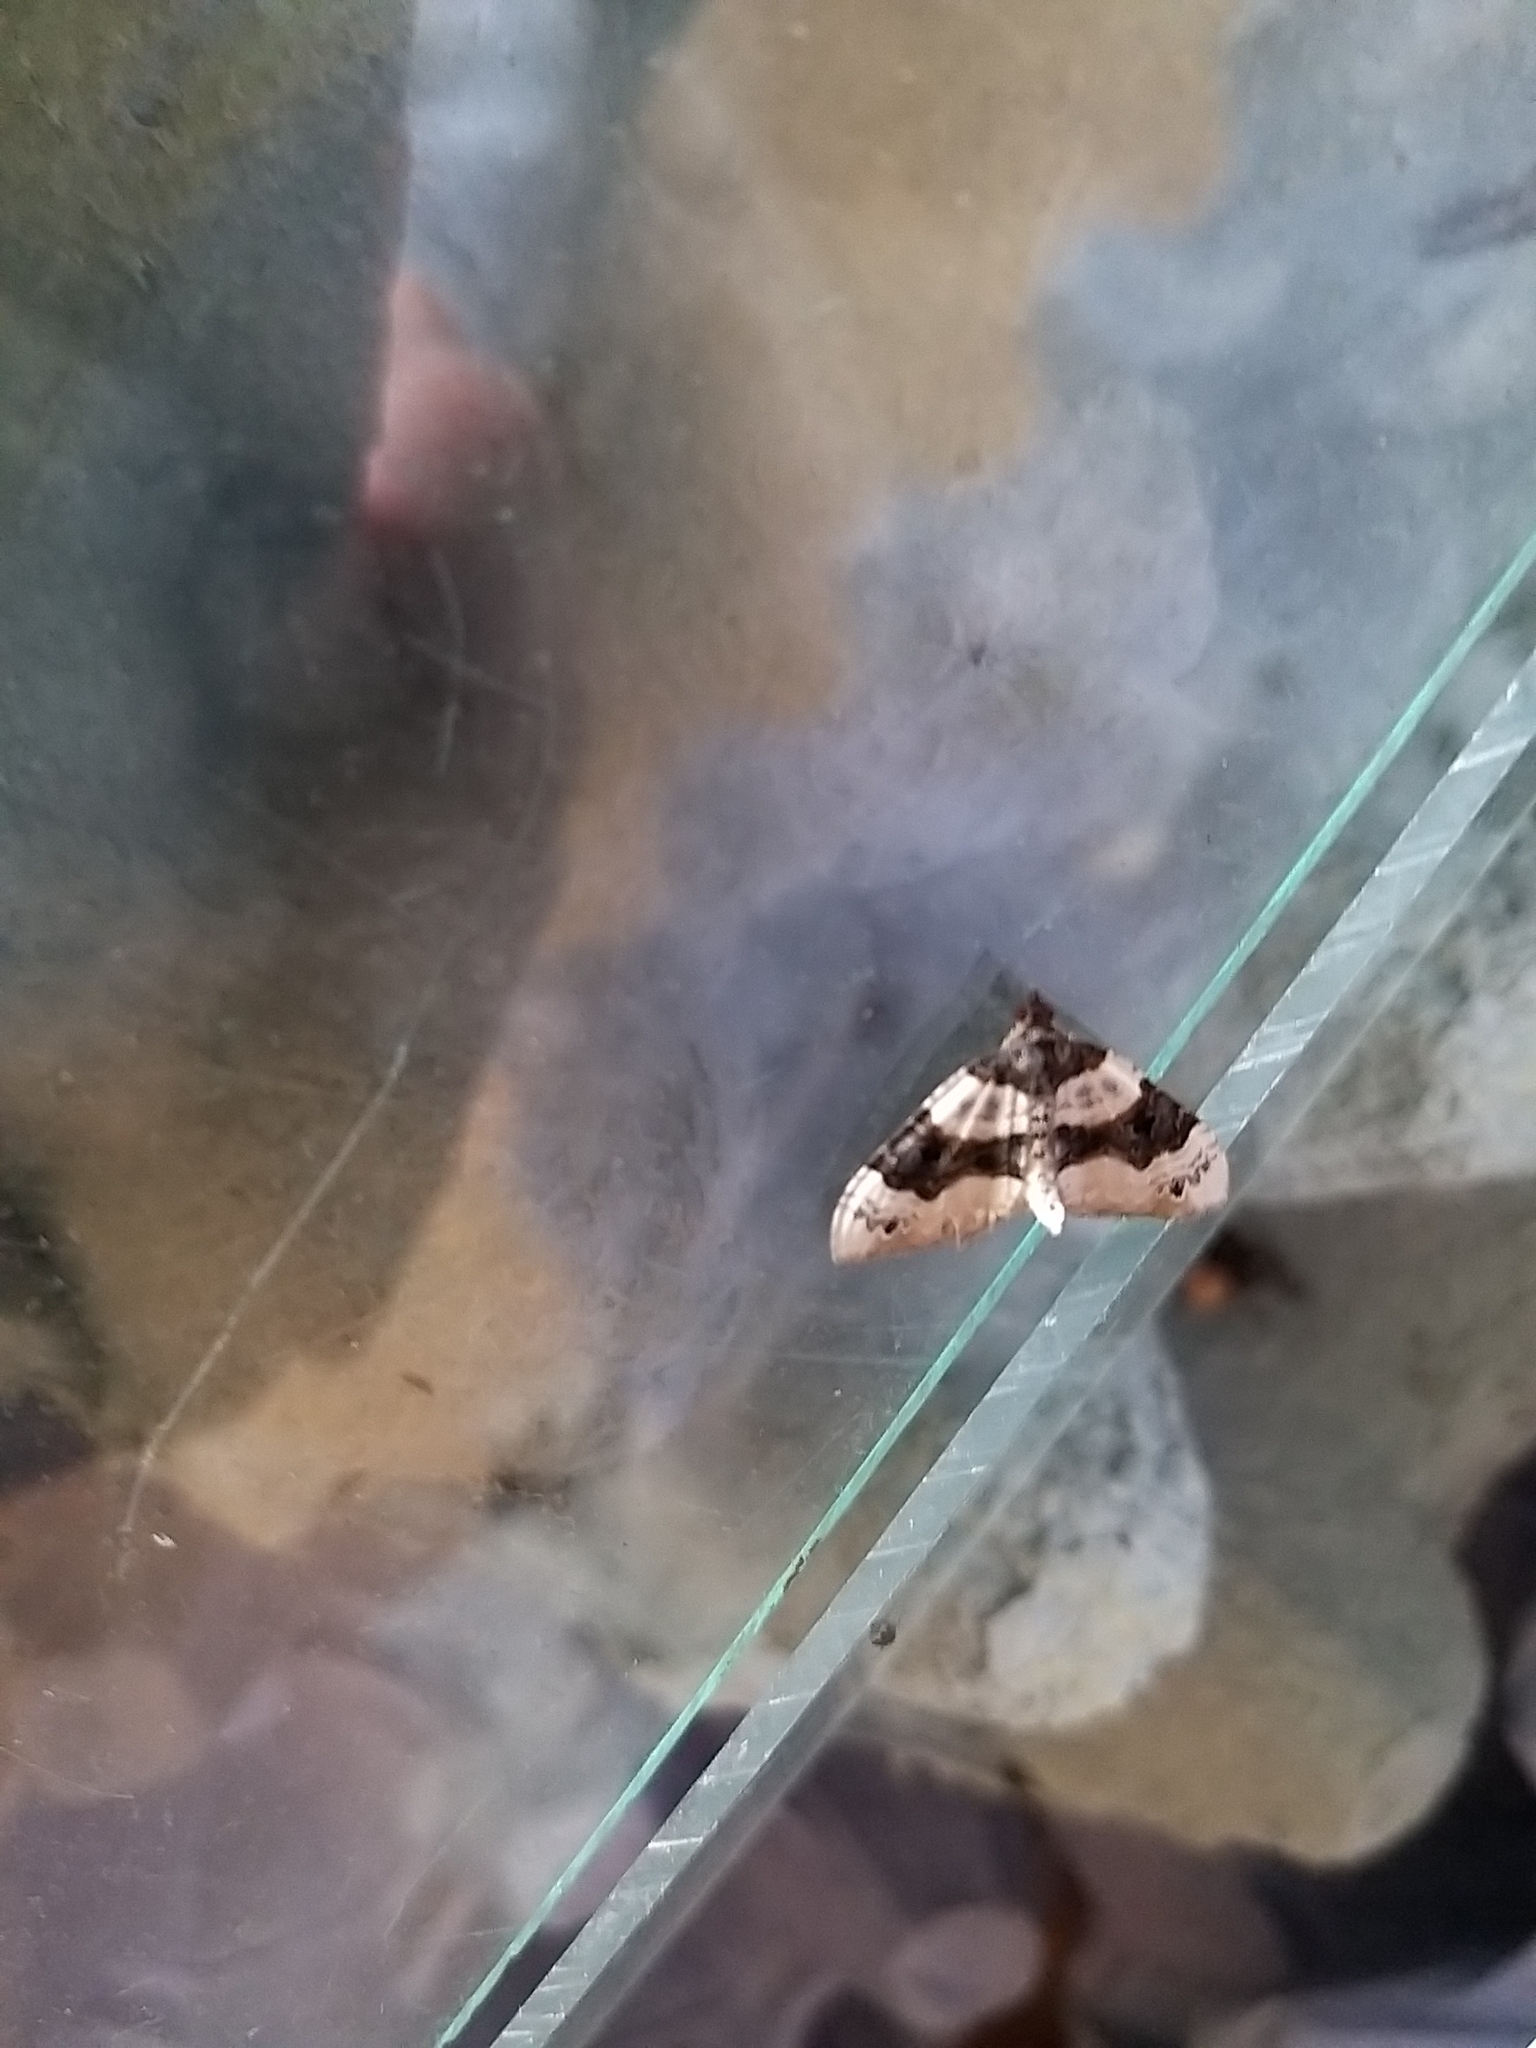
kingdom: Animalia
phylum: Arthropoda
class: Insecta
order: Lepidoptera
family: Geometridae
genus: Cosmorhoe
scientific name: Cosmorhoe ocellata
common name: Purple bar
